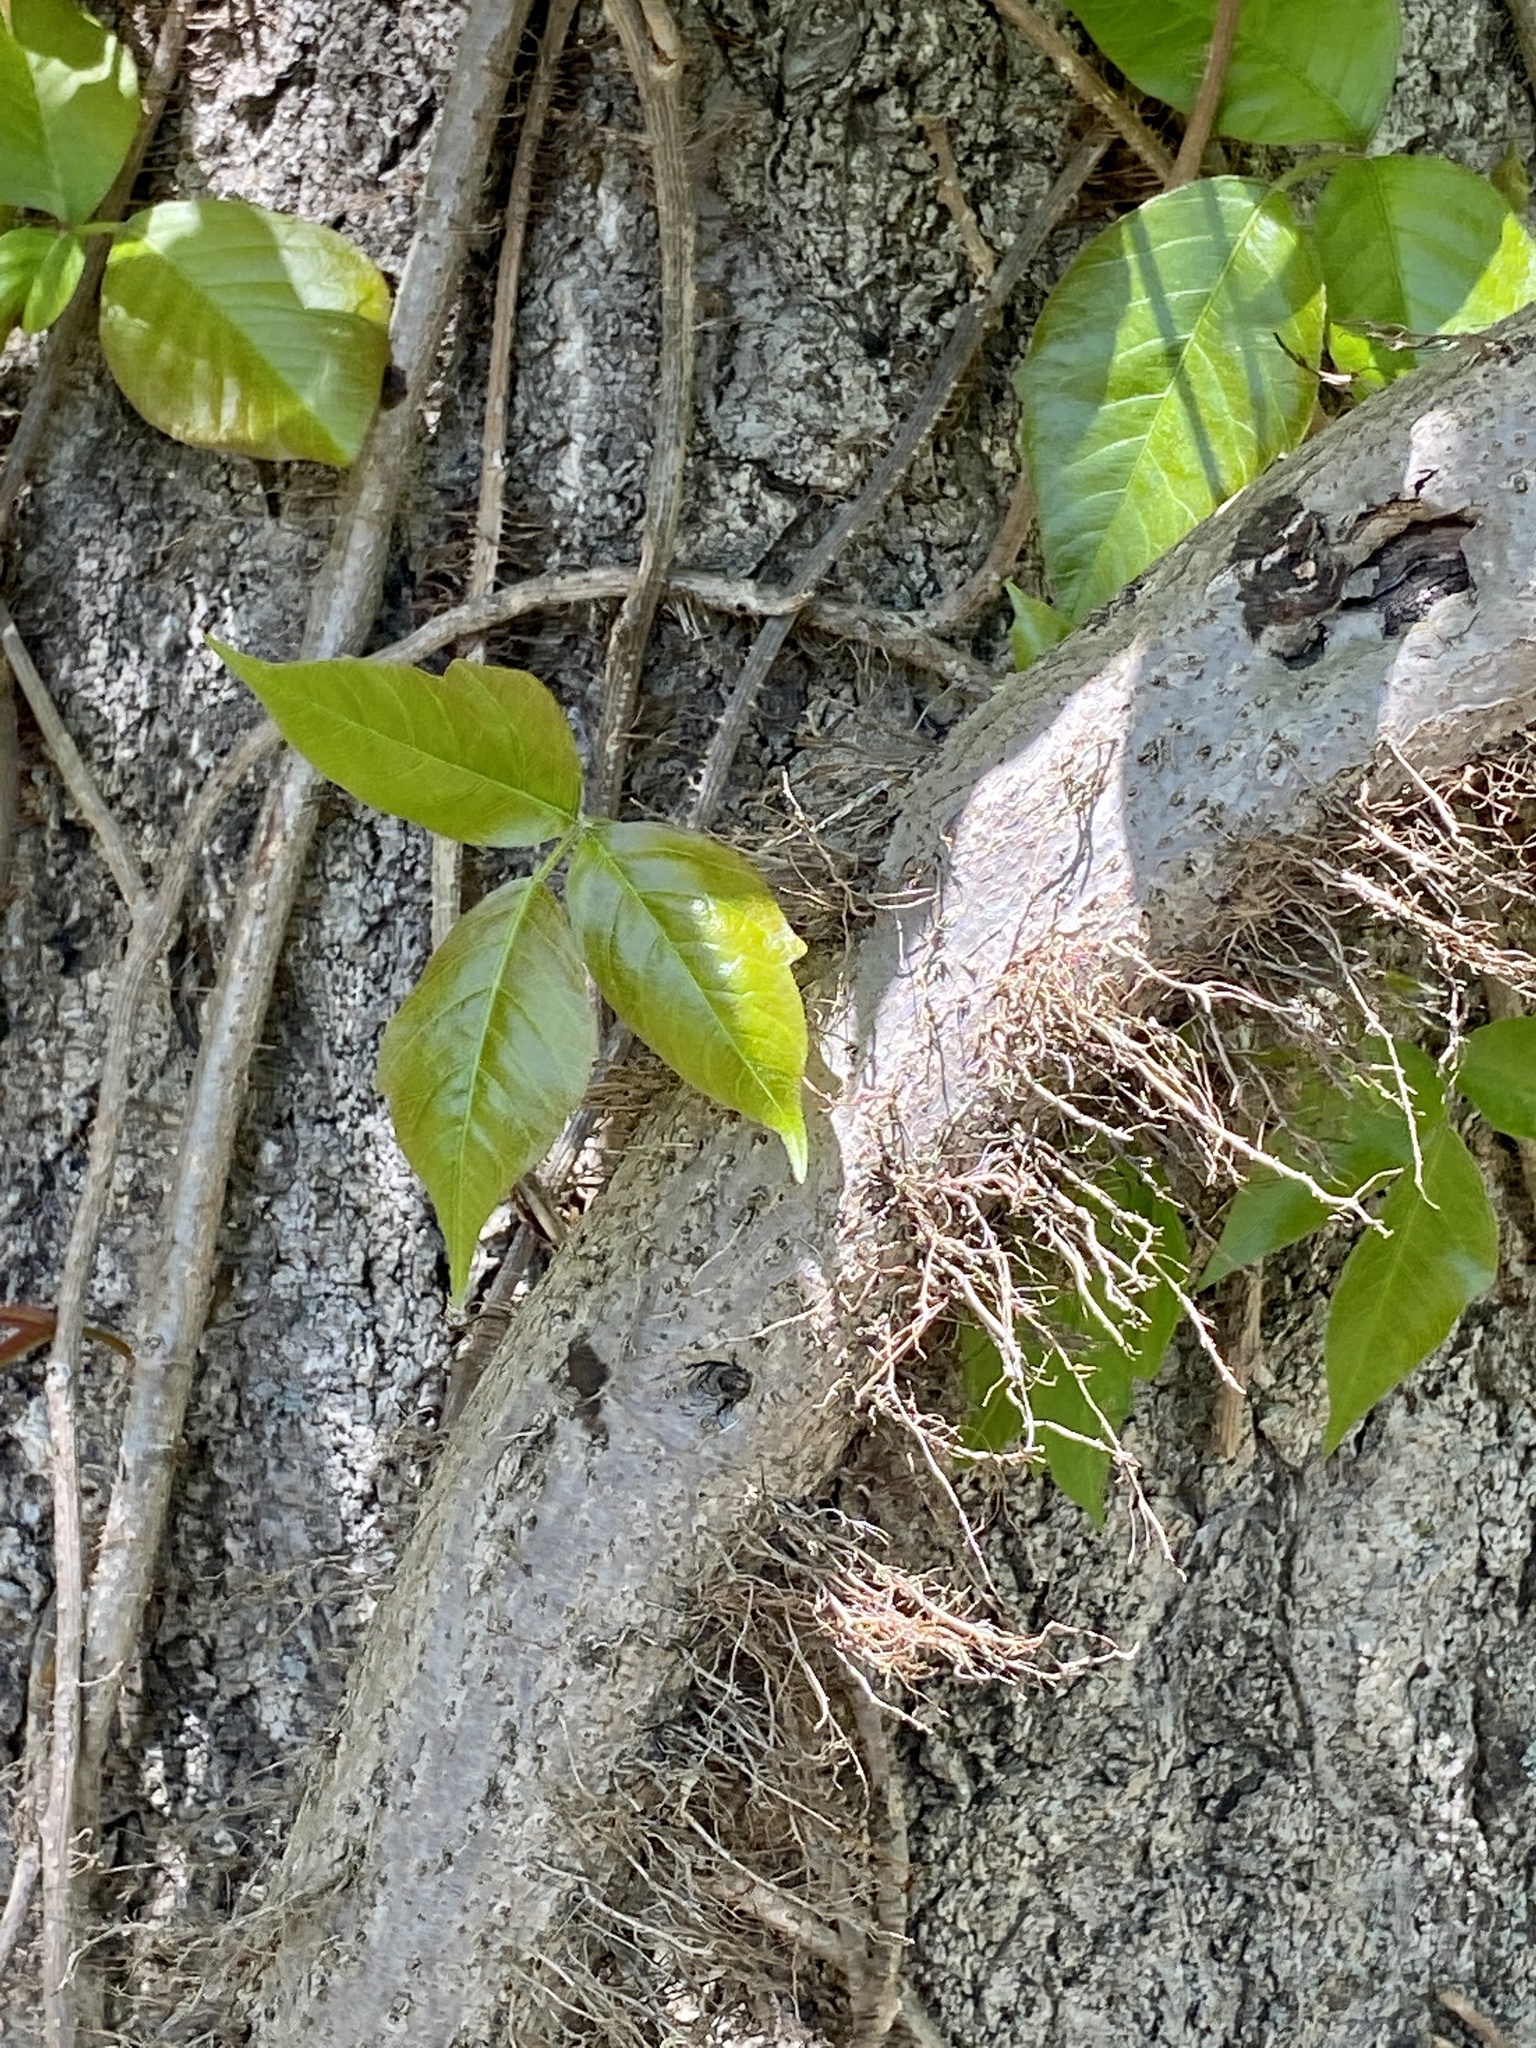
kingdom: Plantae
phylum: Tracheophyta
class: Magnoliopsida
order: Sapindales
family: Anacardiaceae
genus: Toxicodendron
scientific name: Toxicodendron radicans
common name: Poison ivy
